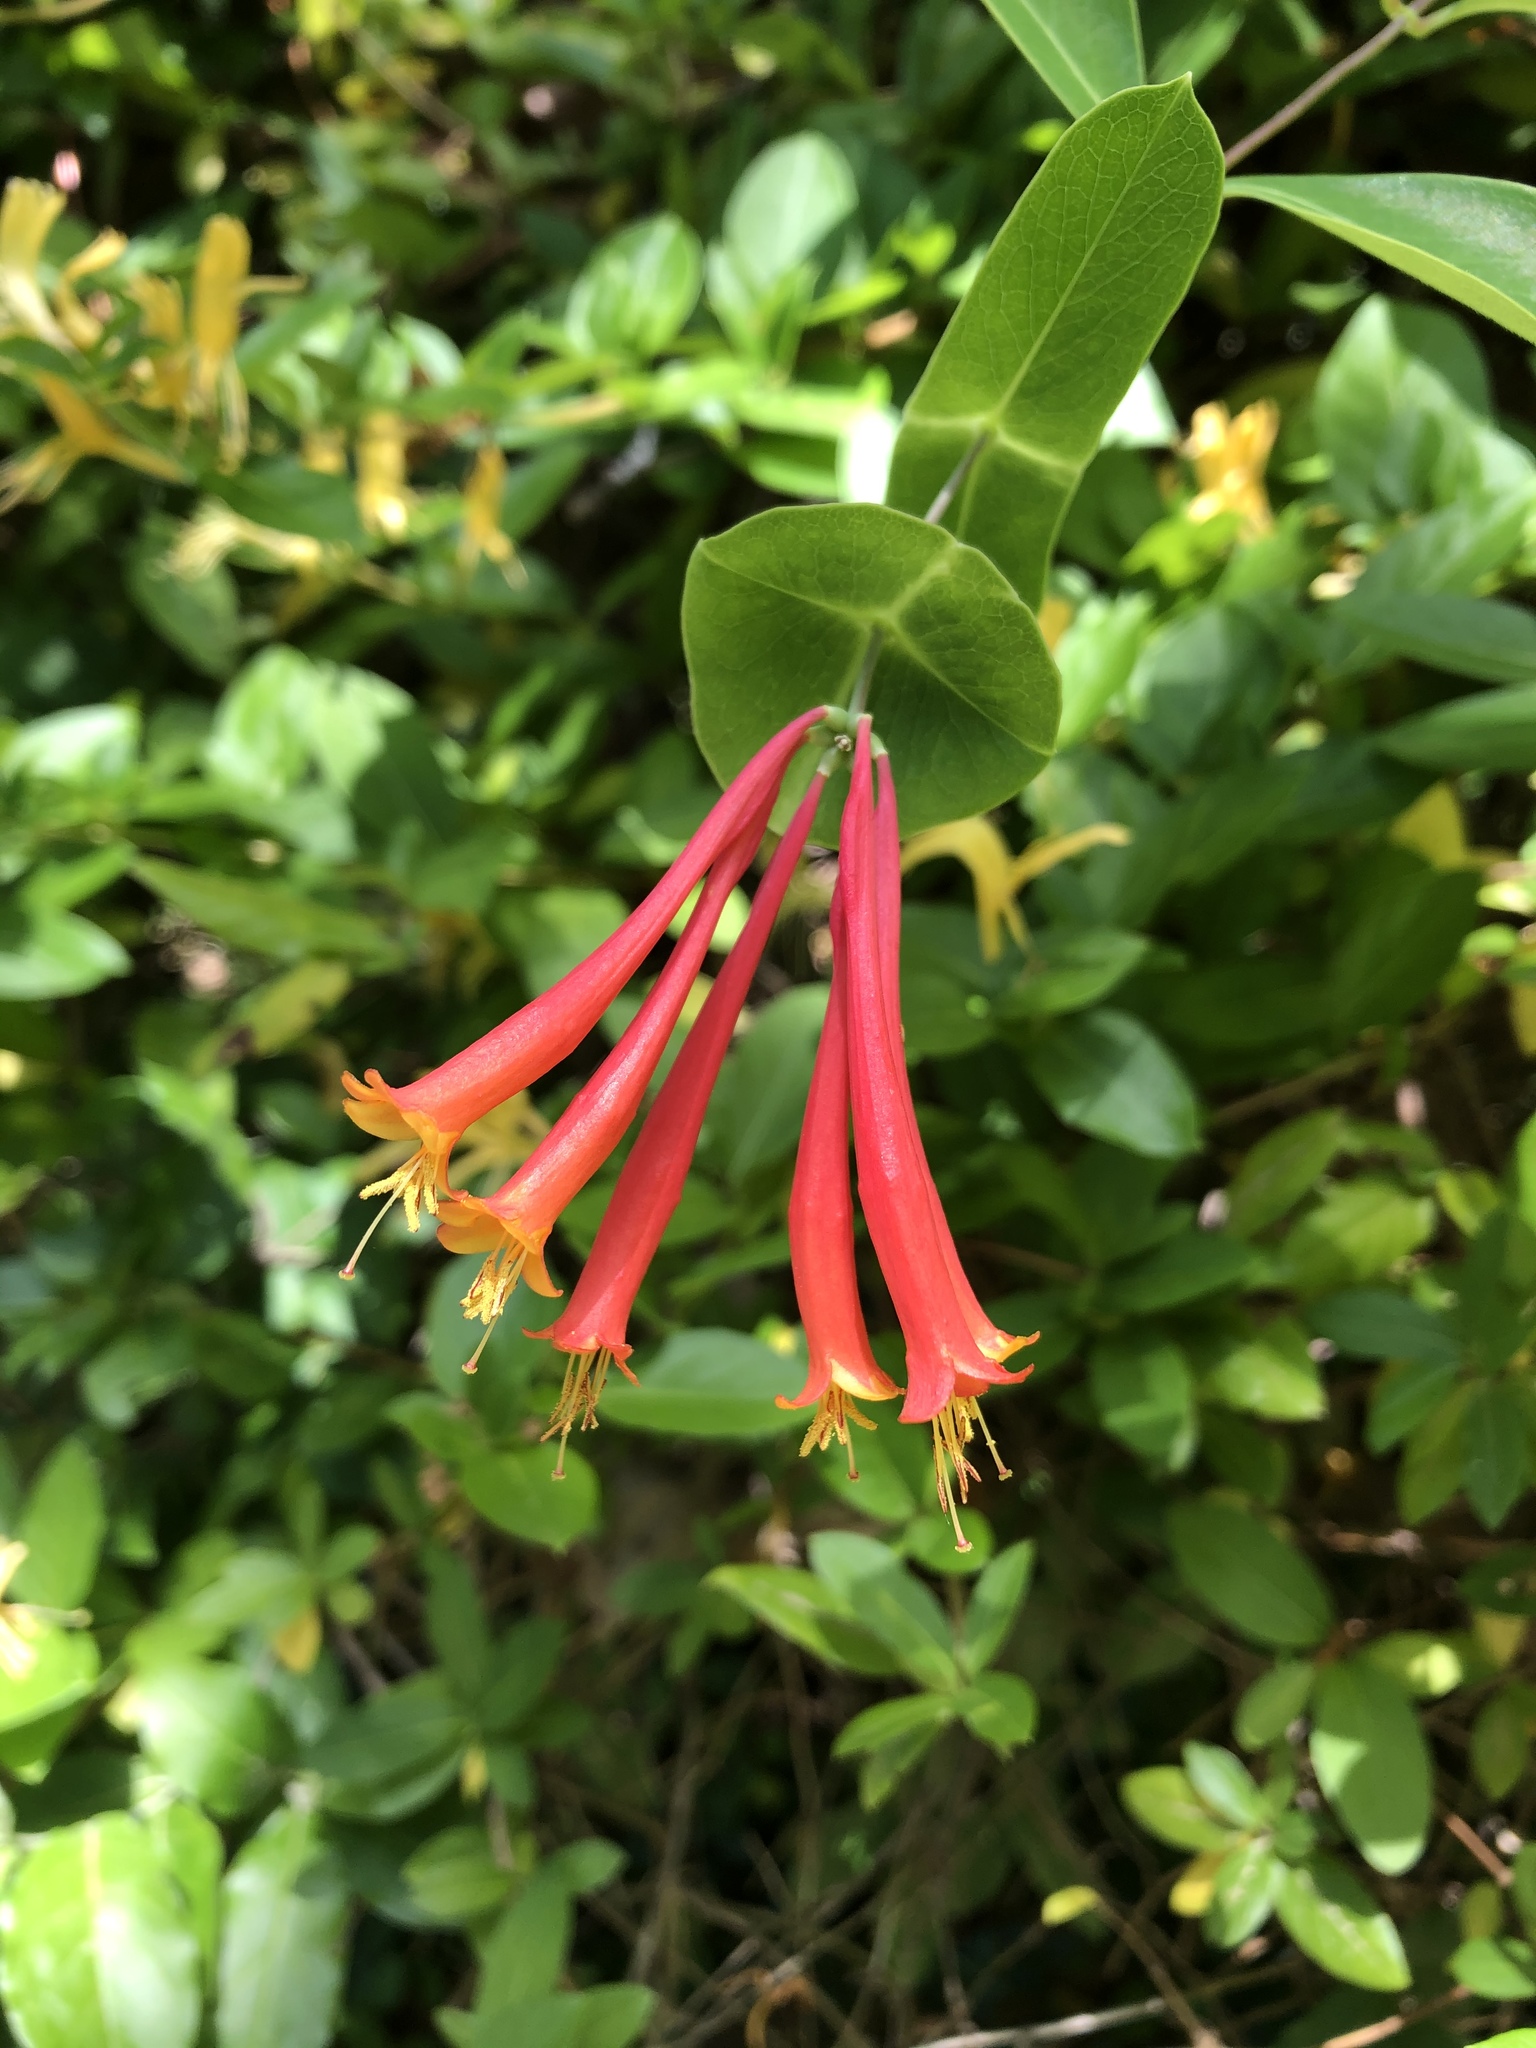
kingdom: Plantae
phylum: Tracheophyta
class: Magnoliopsida
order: Dipsacales
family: Caprifoliaceae
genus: Lonicera
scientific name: Lonicera sempervirens
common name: Coral honeysuckle
